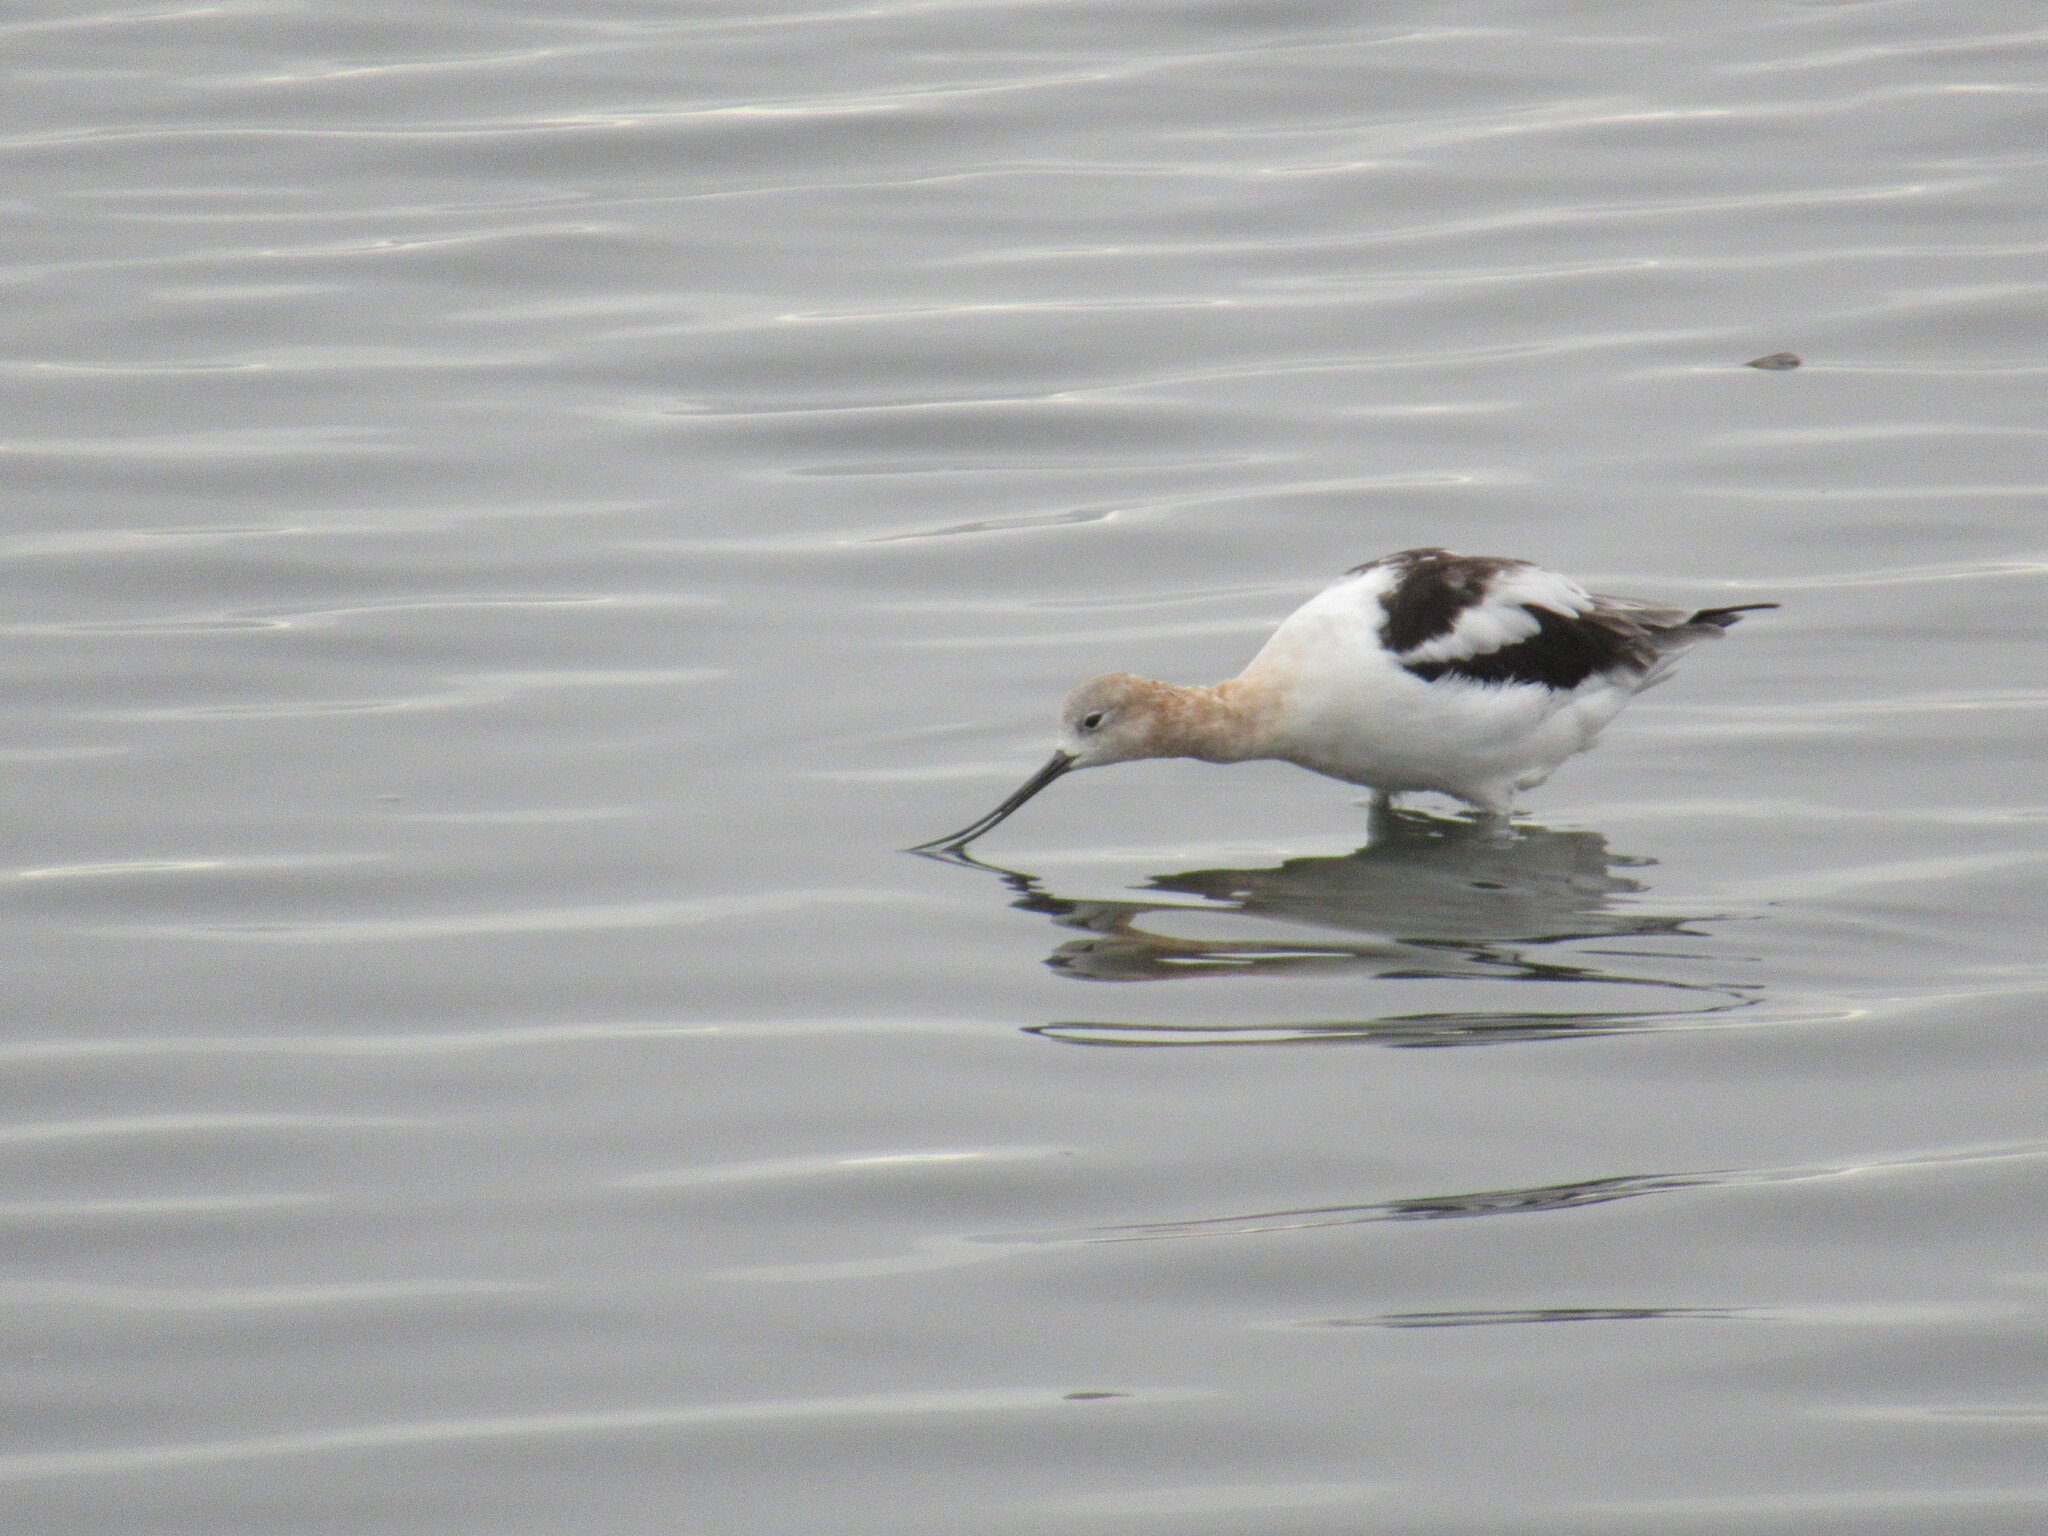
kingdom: Animalia
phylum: Chordata
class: Aves
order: Charadriiformes
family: Recurvirostridae
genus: Recurvirostra
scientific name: Recurvirostra americana
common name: American avocet
